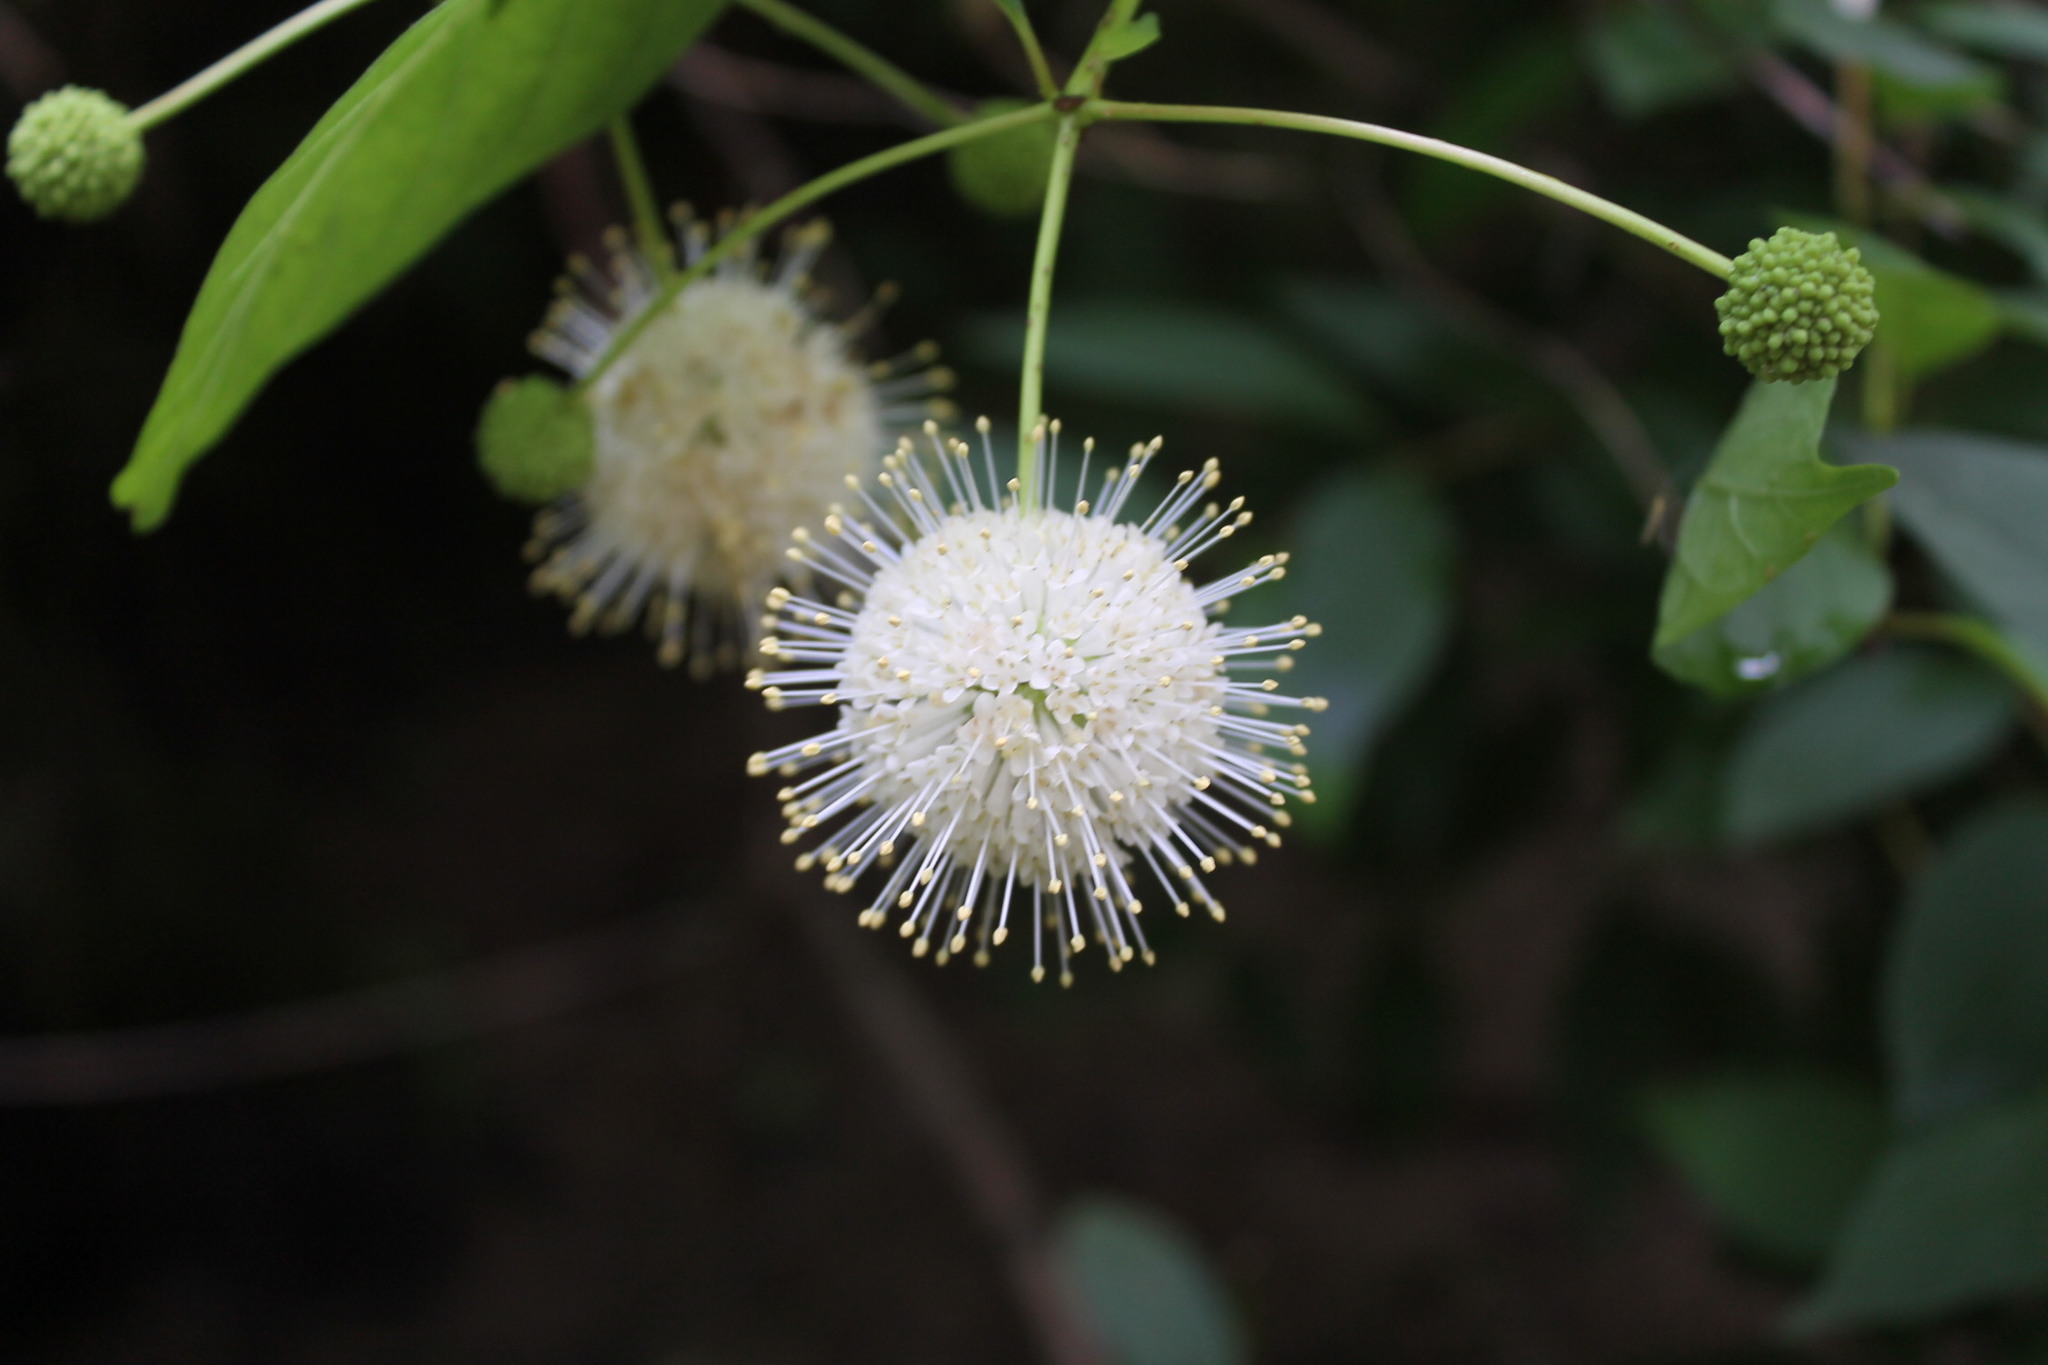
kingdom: Plantae
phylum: Tracheophyta
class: Magnoliopsida
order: Gentianales
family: Rubiaceae
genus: Cephalanthus
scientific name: Cephalanthus occidentalis
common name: Button-willow
